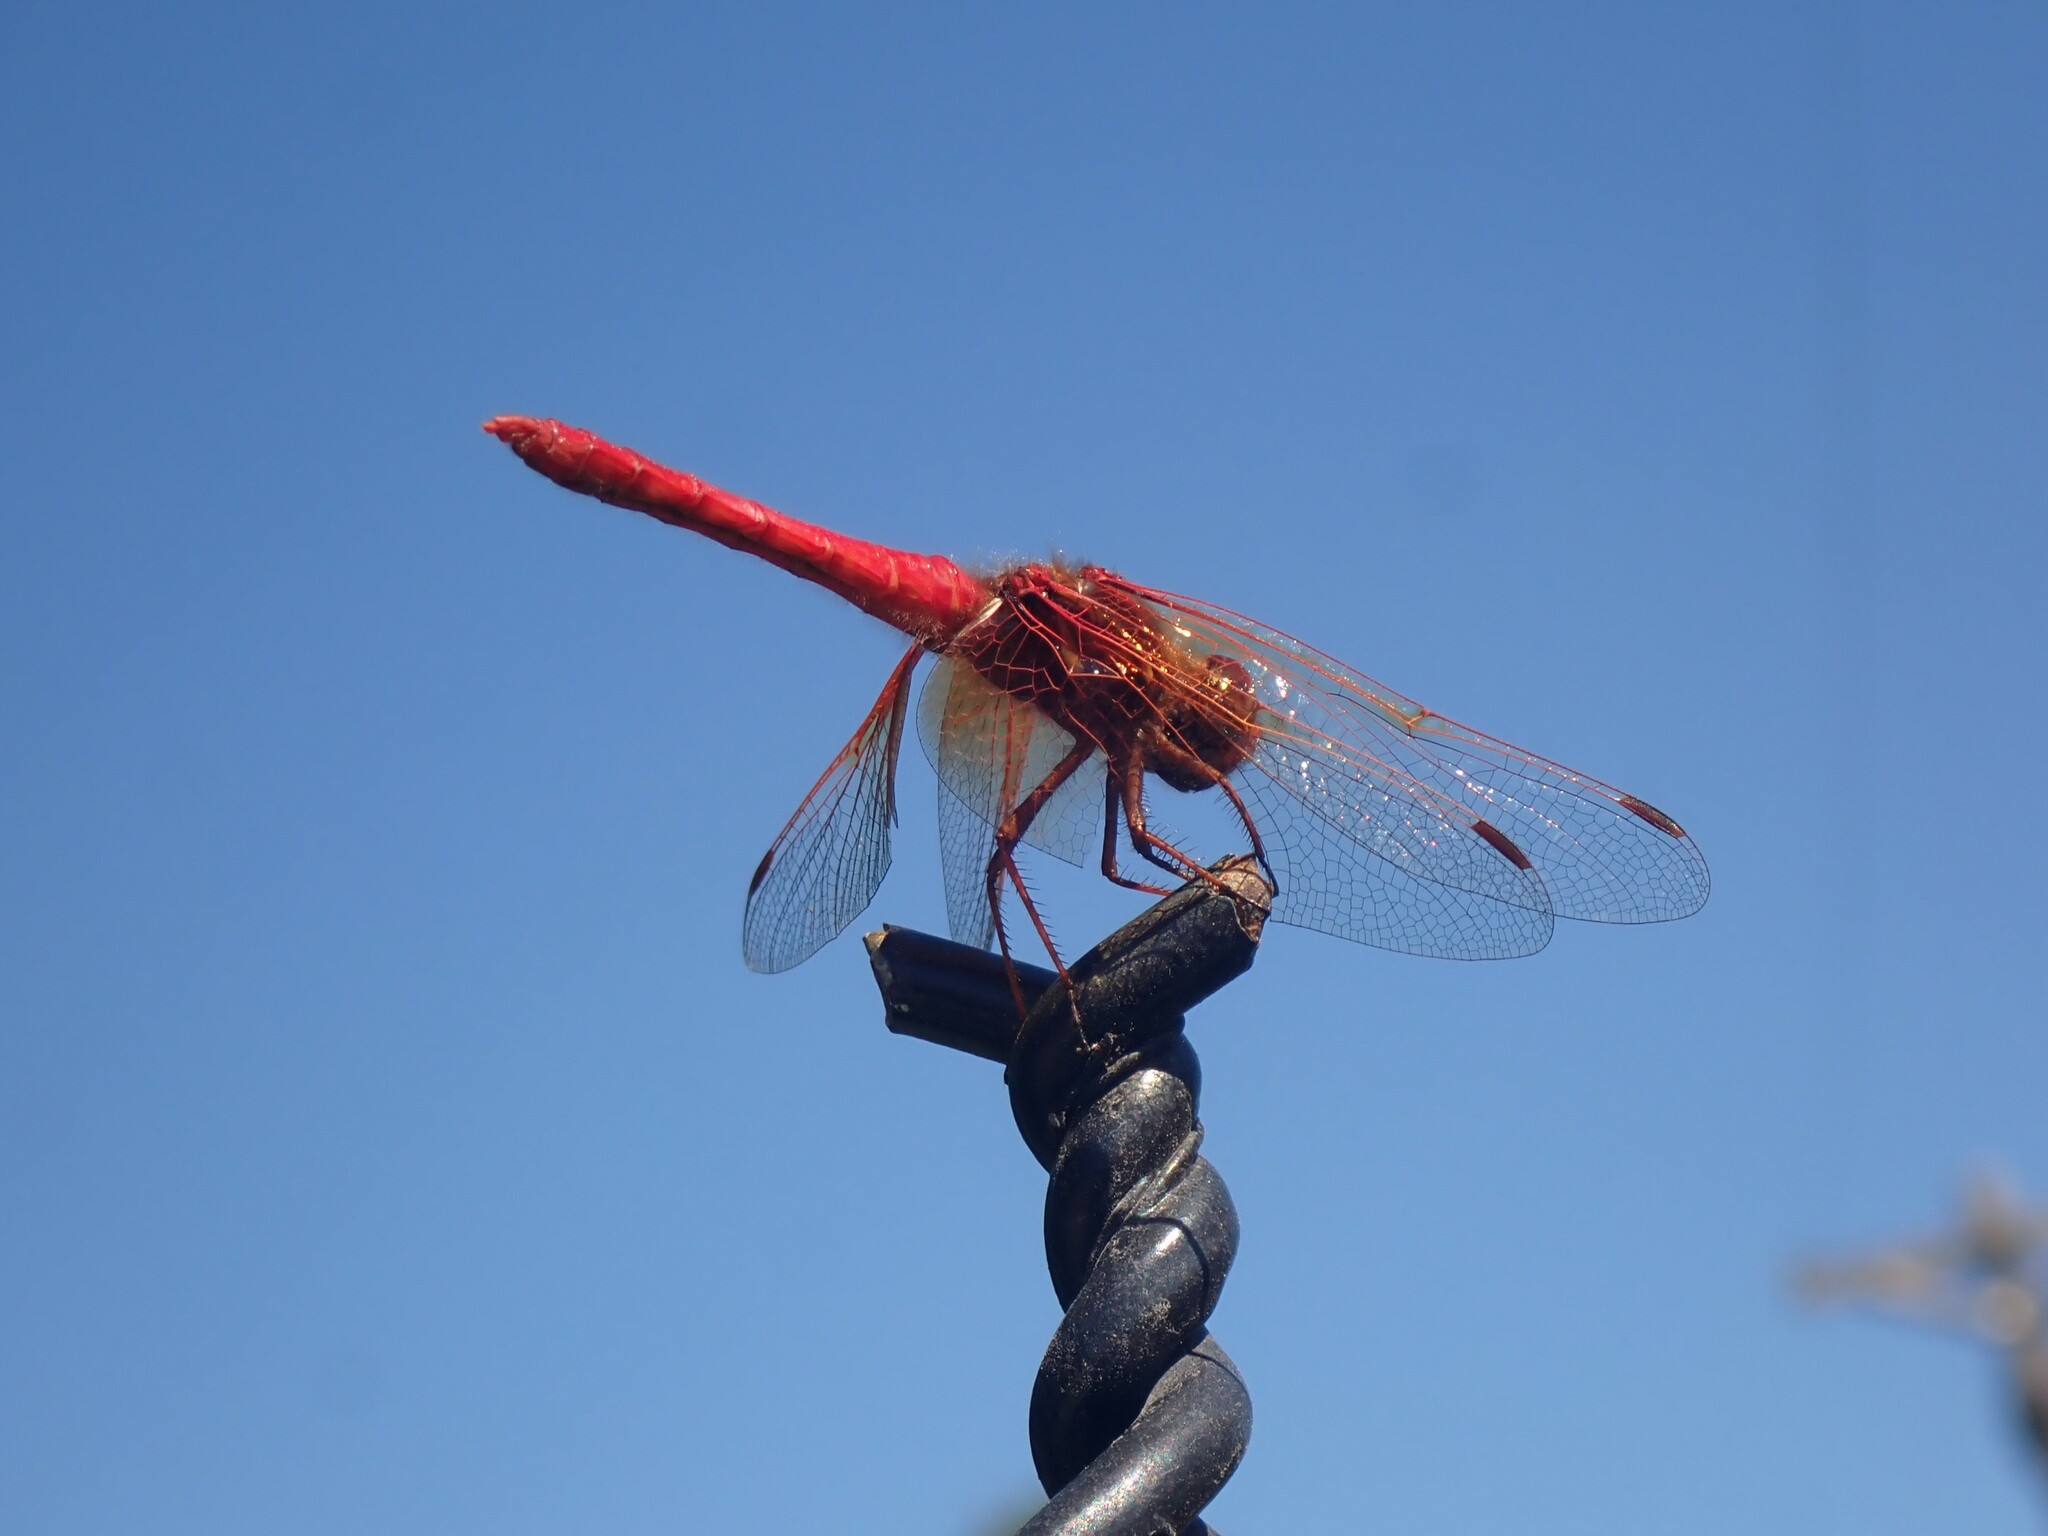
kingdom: Animalia
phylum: Arthropoda
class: Insecta
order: Odonata
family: Libellulidae
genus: Sympetrum
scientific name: Sympetrum illotum
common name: Cardinal meadowhawk
